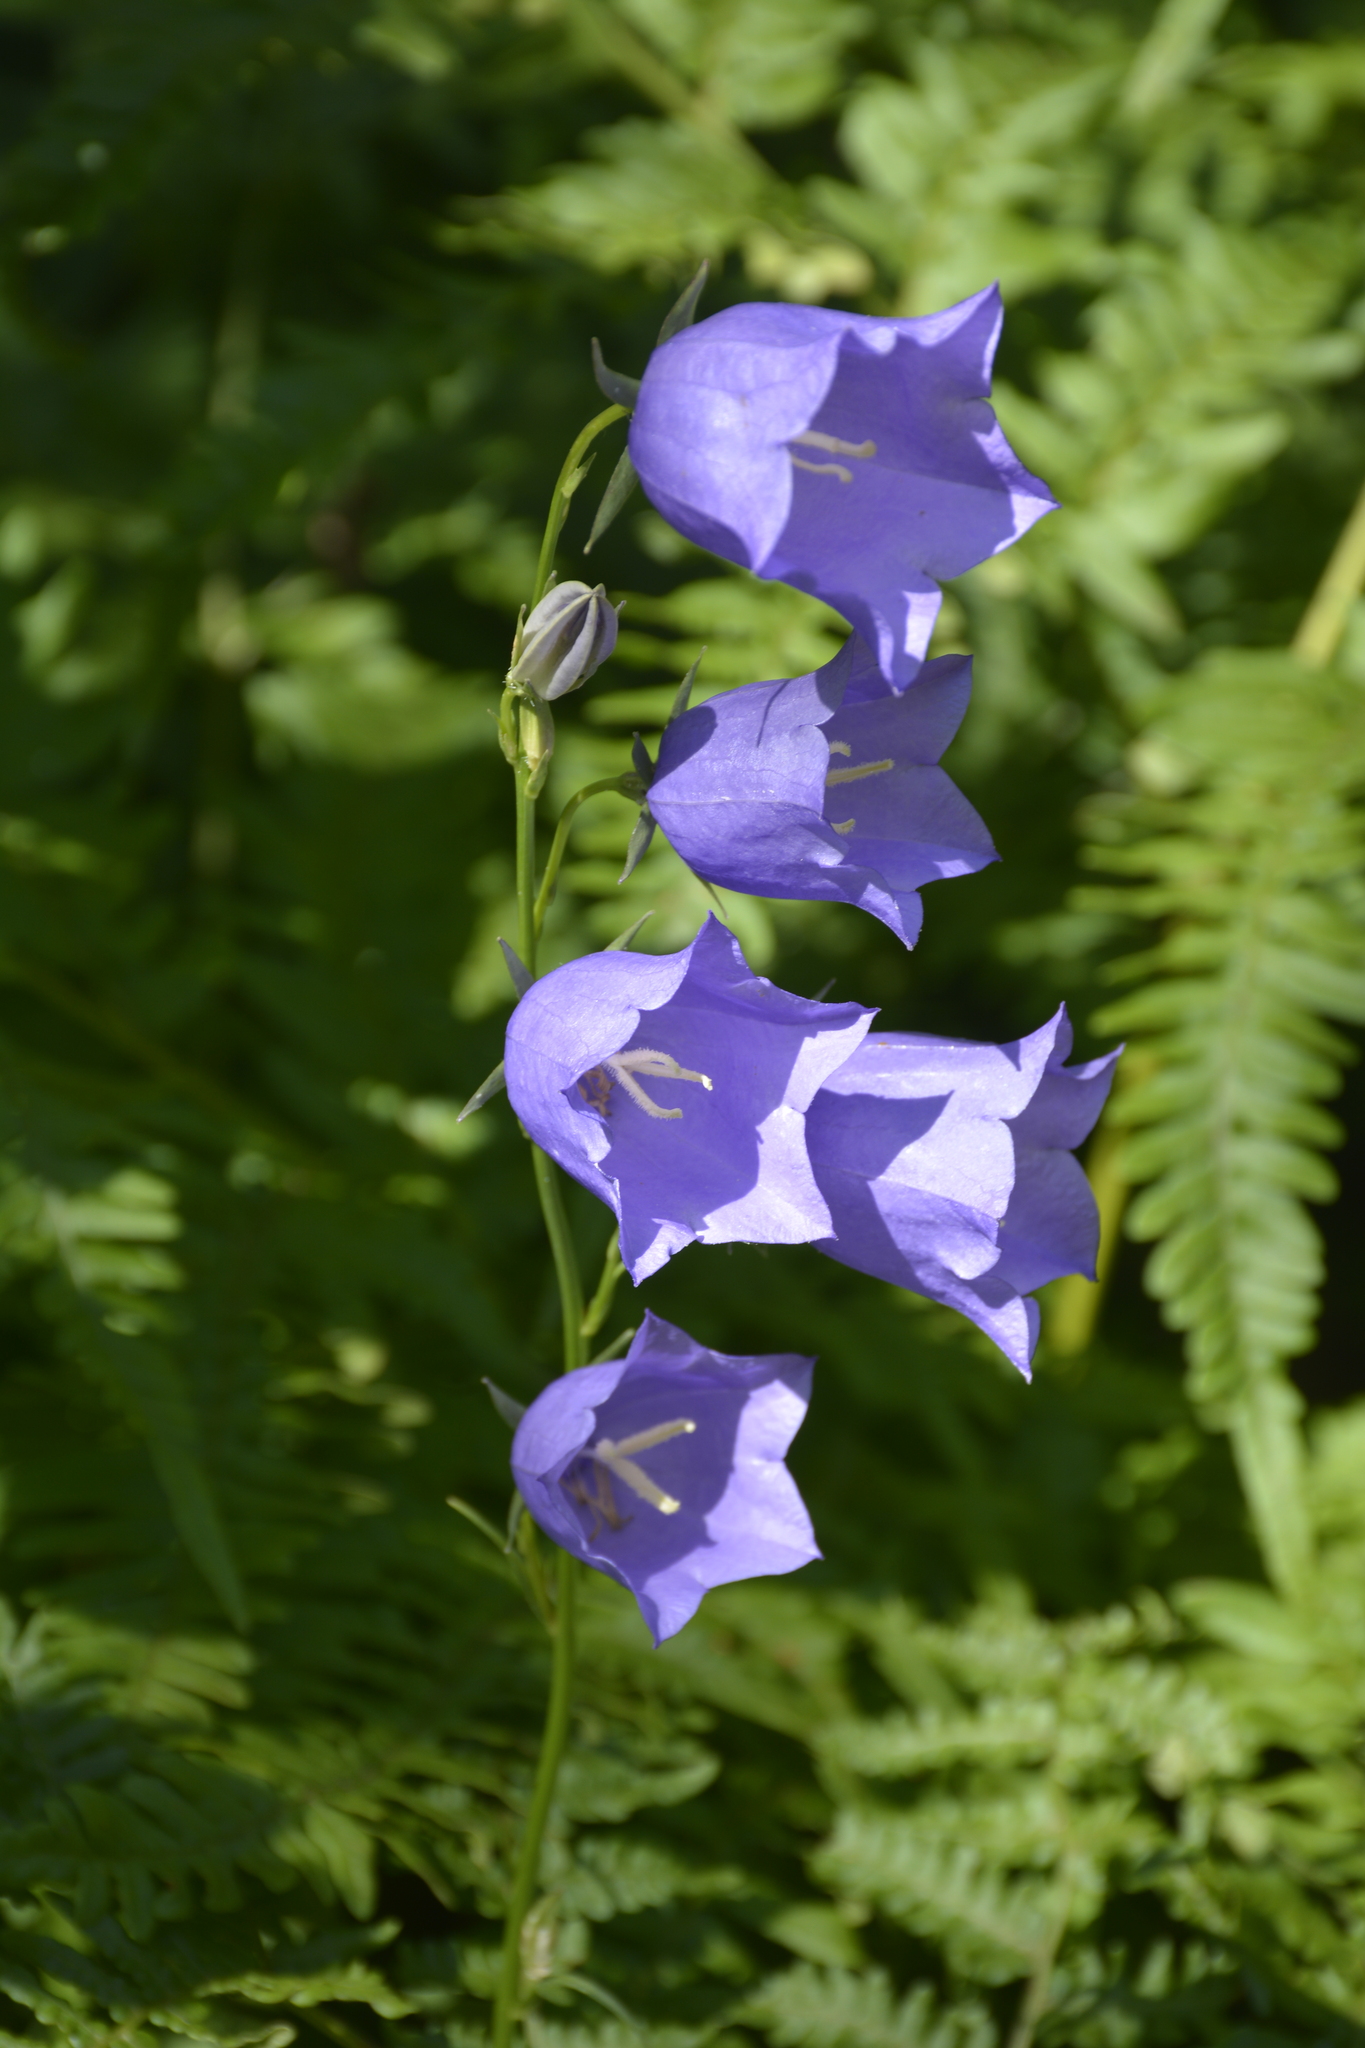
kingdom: Plantae
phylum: Tracheophyta
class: Magnoliopsida
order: Asterales
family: Campanulaceae
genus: Campanula
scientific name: Campanula persicifolia
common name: Peach-leaved bellflower
